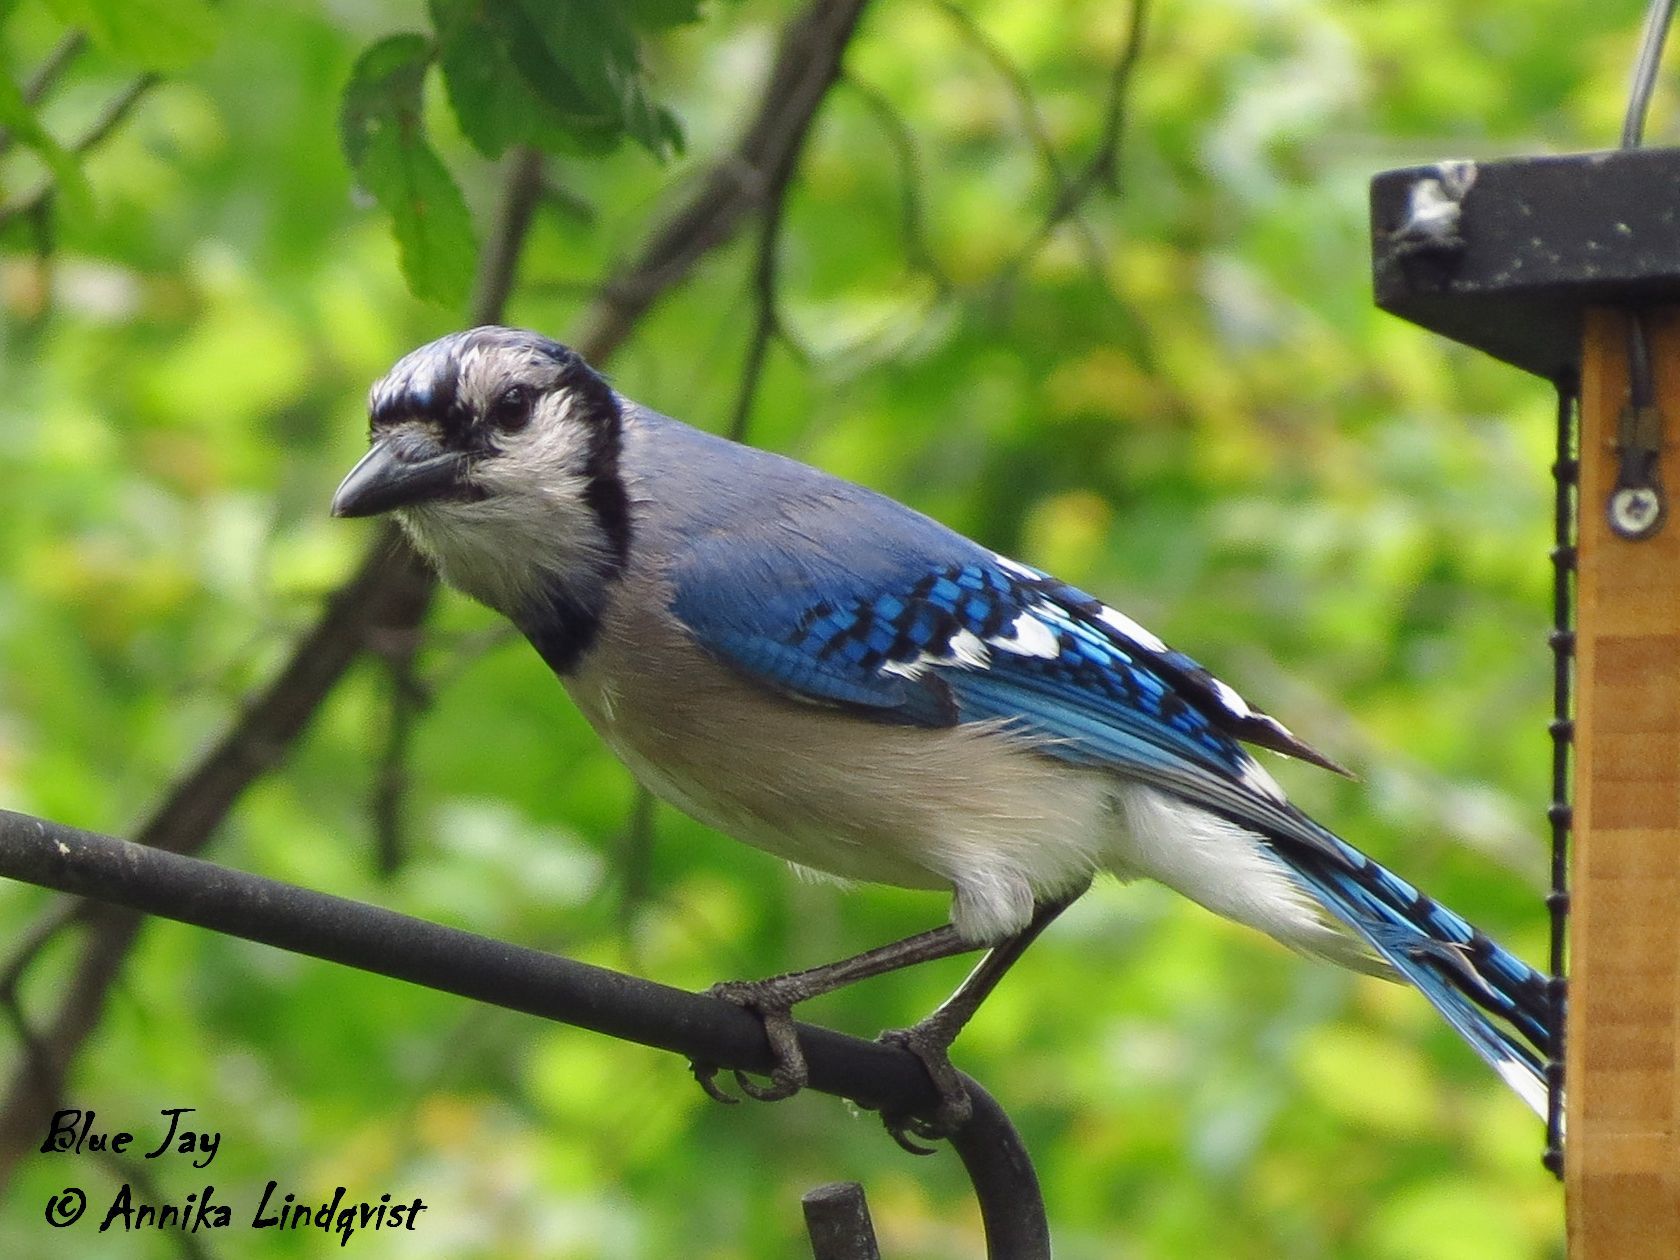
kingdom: Animalia
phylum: Chordata
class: Aves
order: Passeriformes
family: Corvidae
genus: Cyanocitta
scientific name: Cyanocitta cristata
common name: Blue jay
